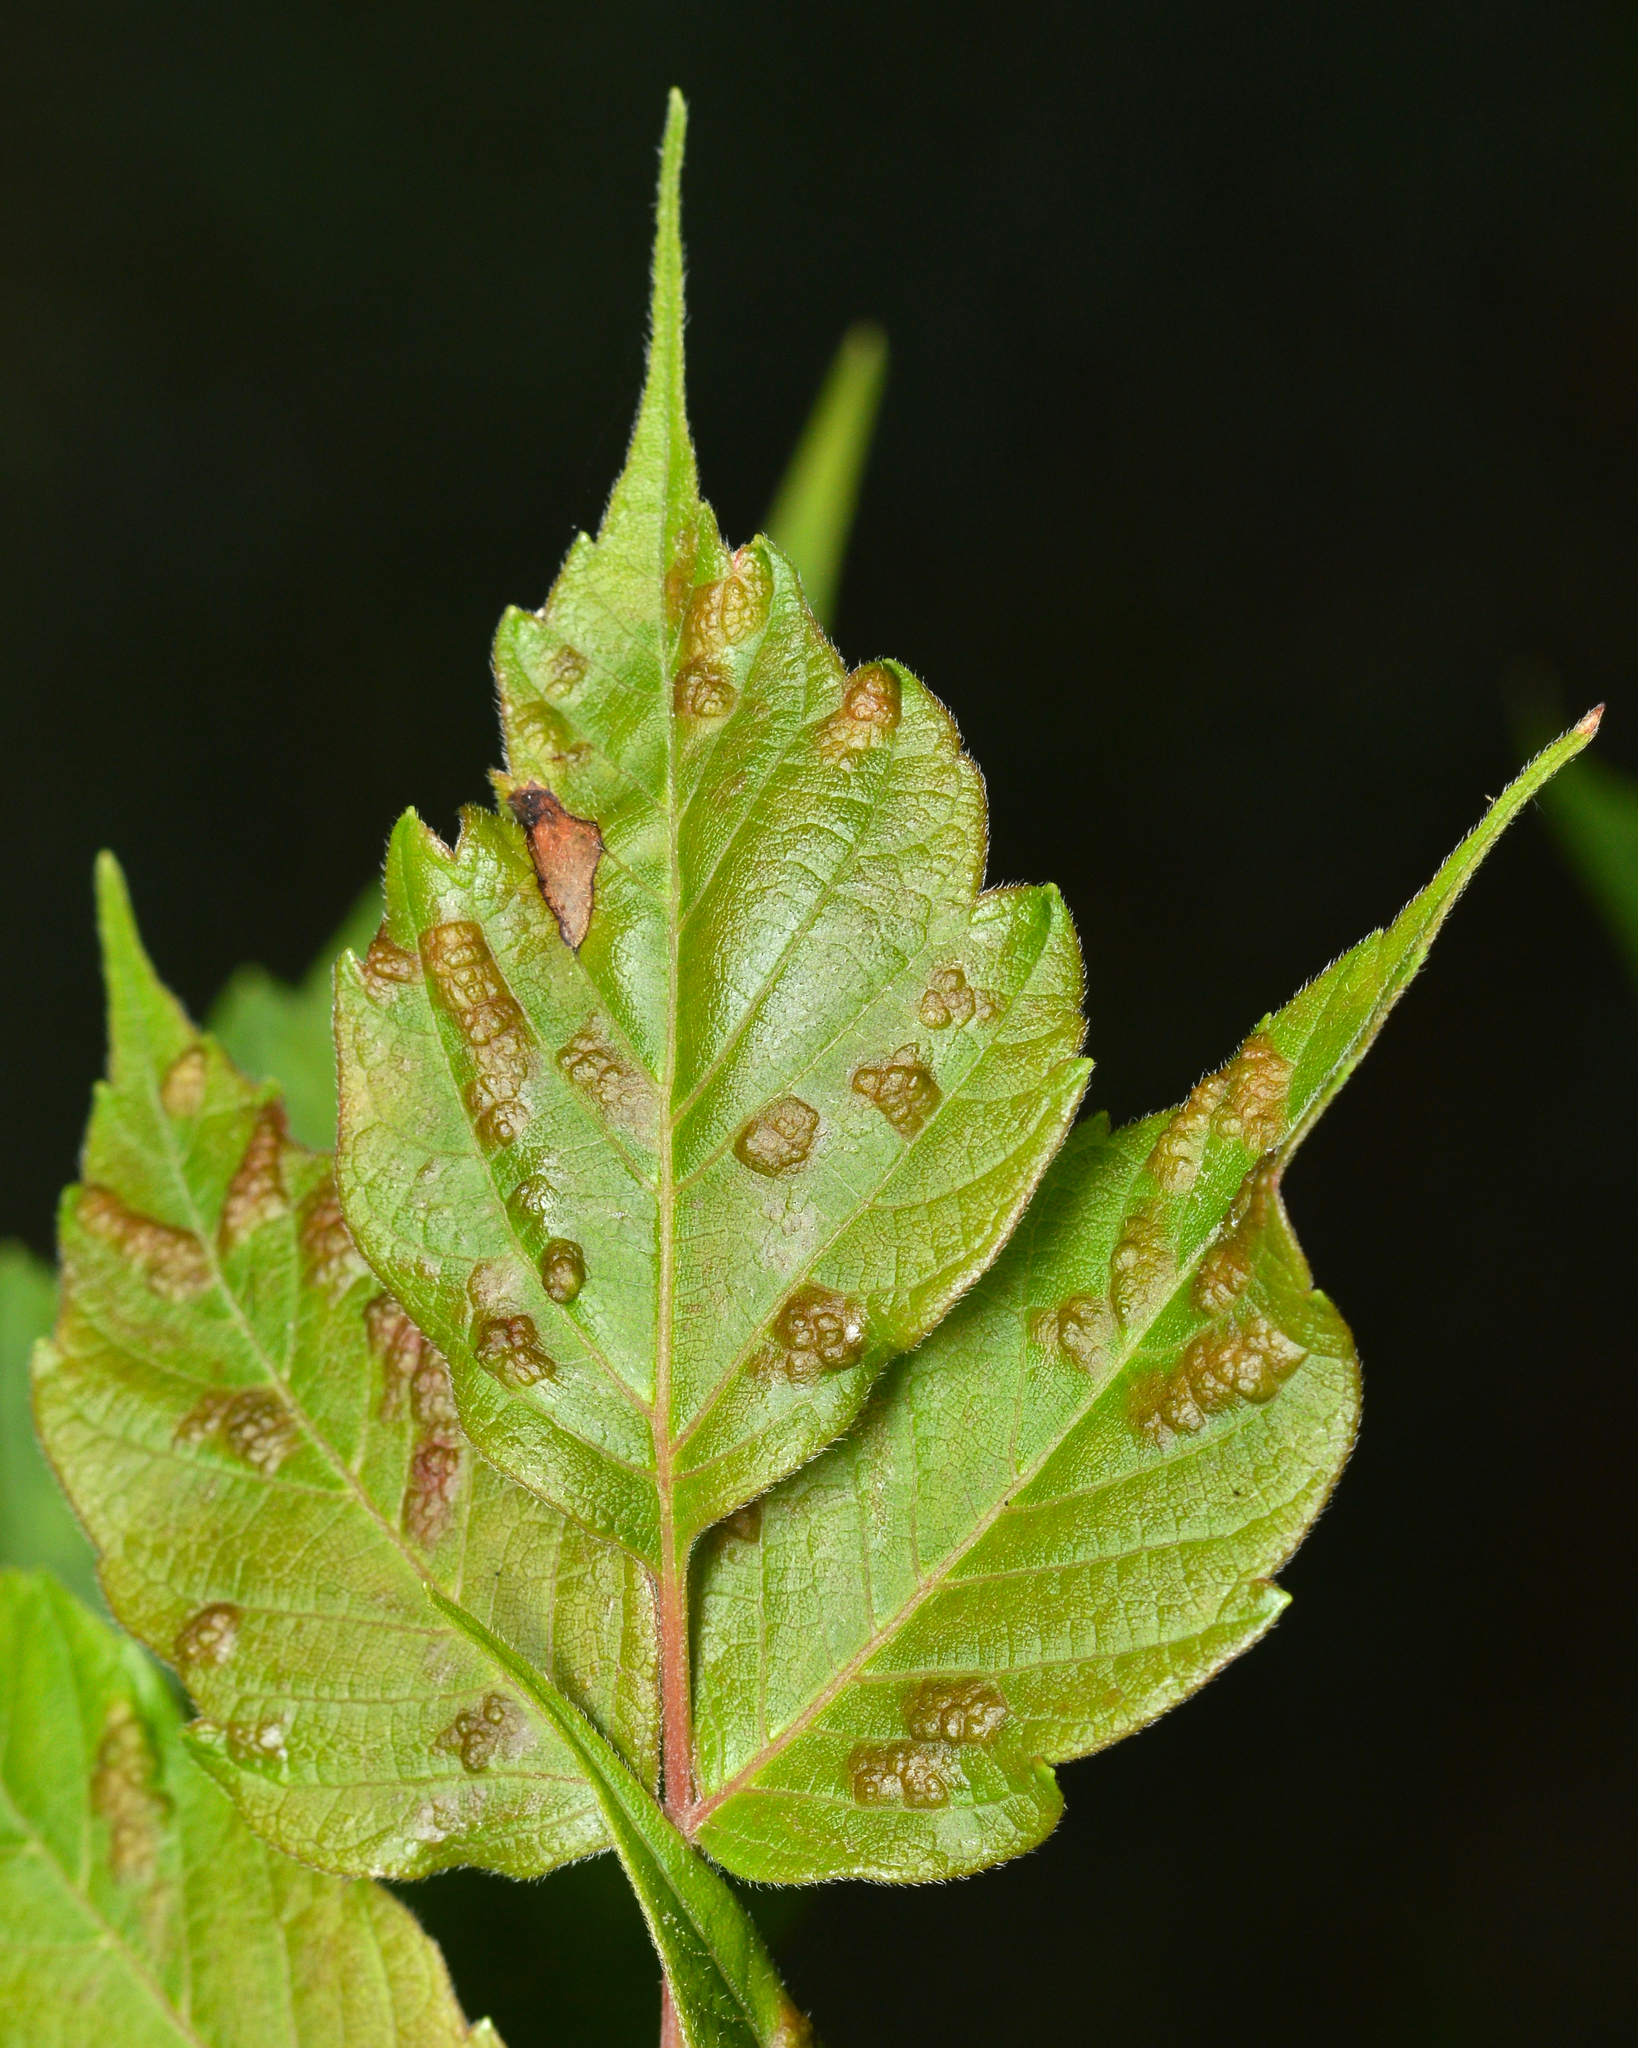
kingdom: Animalia
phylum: Arthropoda
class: Arachnida
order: Trombidiformes
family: Eriophyidae
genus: Aceria
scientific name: Aceria
